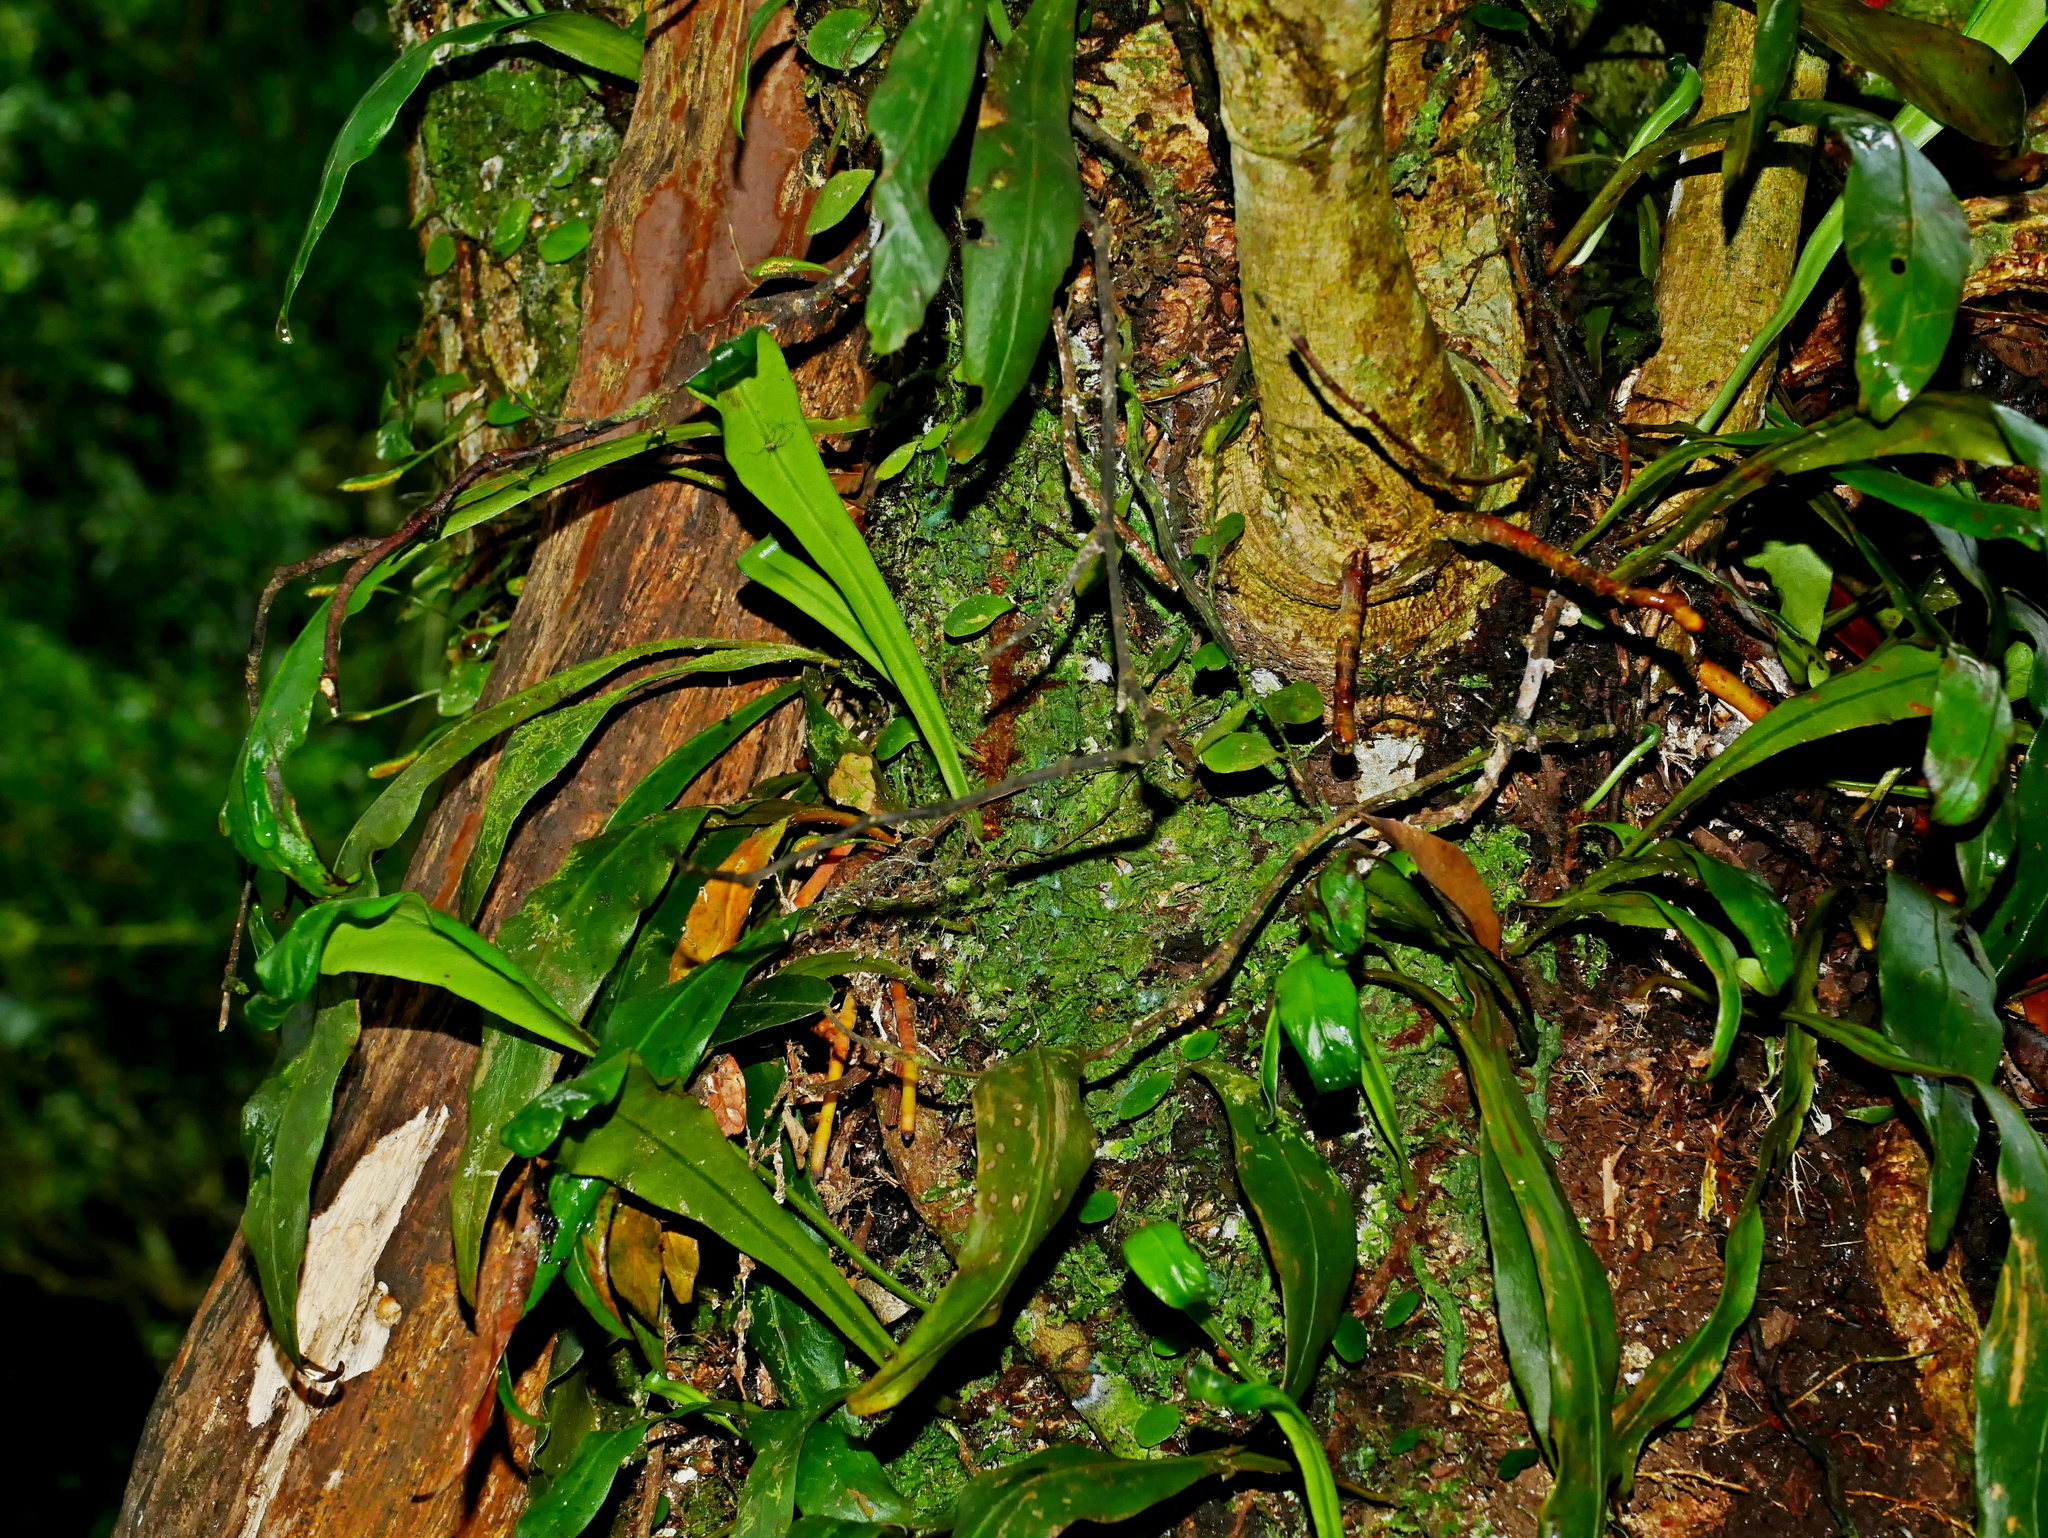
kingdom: Plantae
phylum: Tracheophyta
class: Polypodiopsida
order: Polypodiales
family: Polypodiaceae
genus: Loxogramme
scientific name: Loxogramme salicifolia
